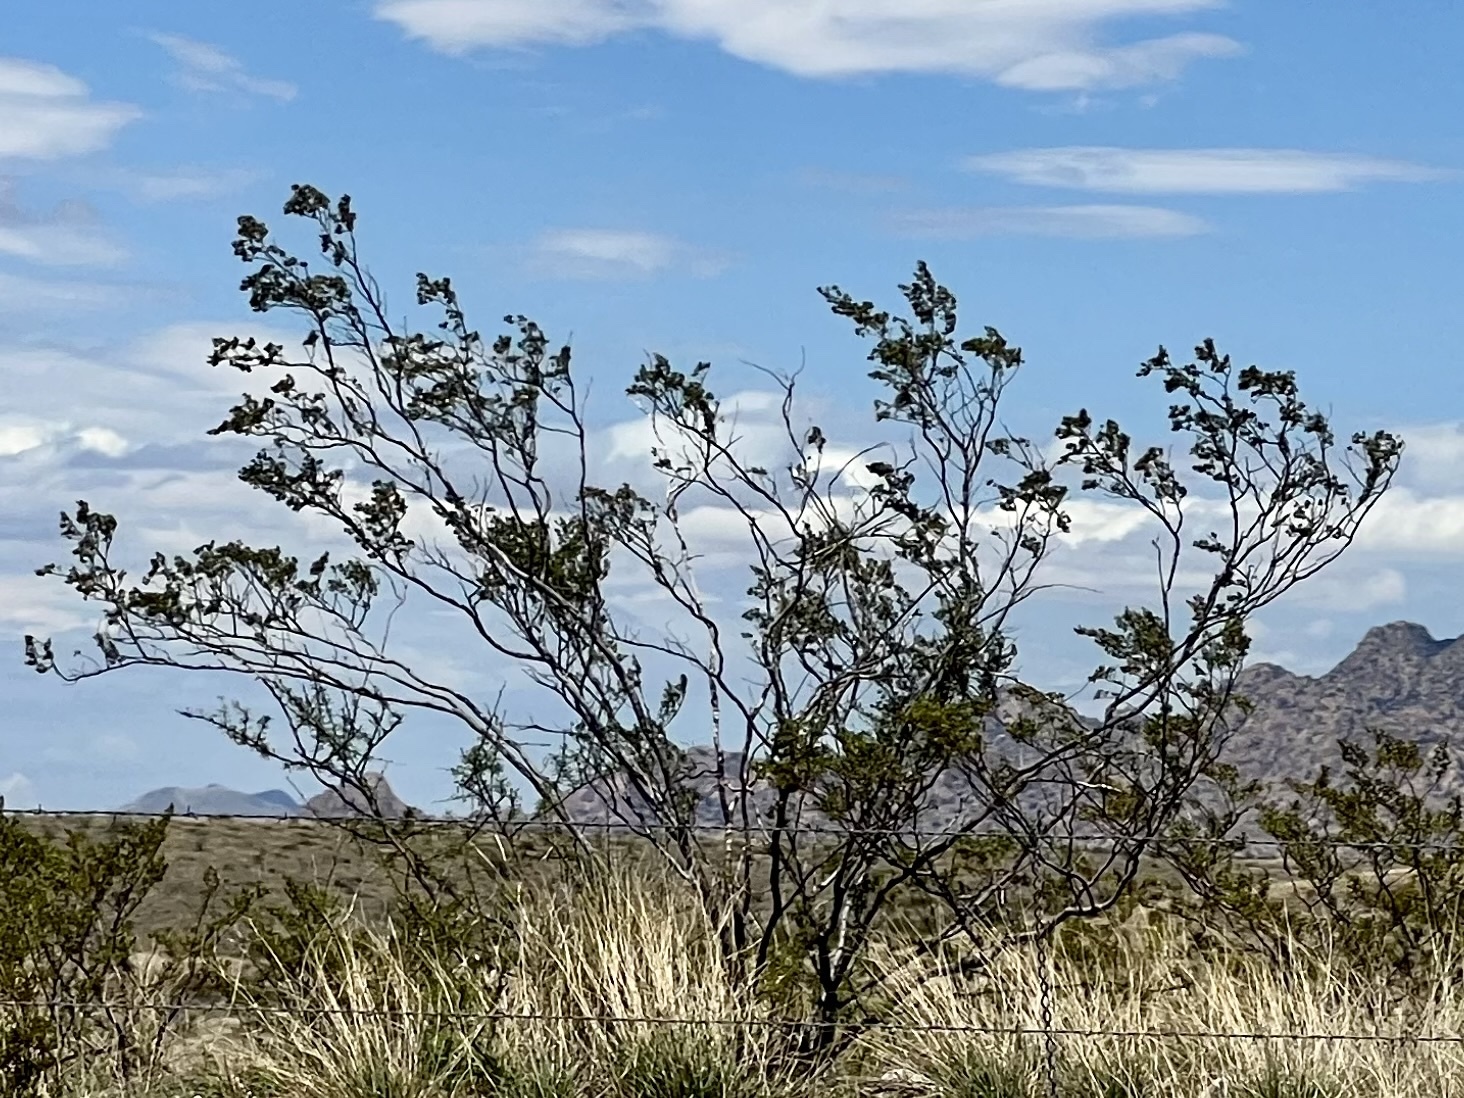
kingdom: Plantae
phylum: Tracheophyta
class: Magnoliopsida
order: Zygophyllales
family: Zygophyllaceae
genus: Larrea
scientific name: Larrea tridentata
